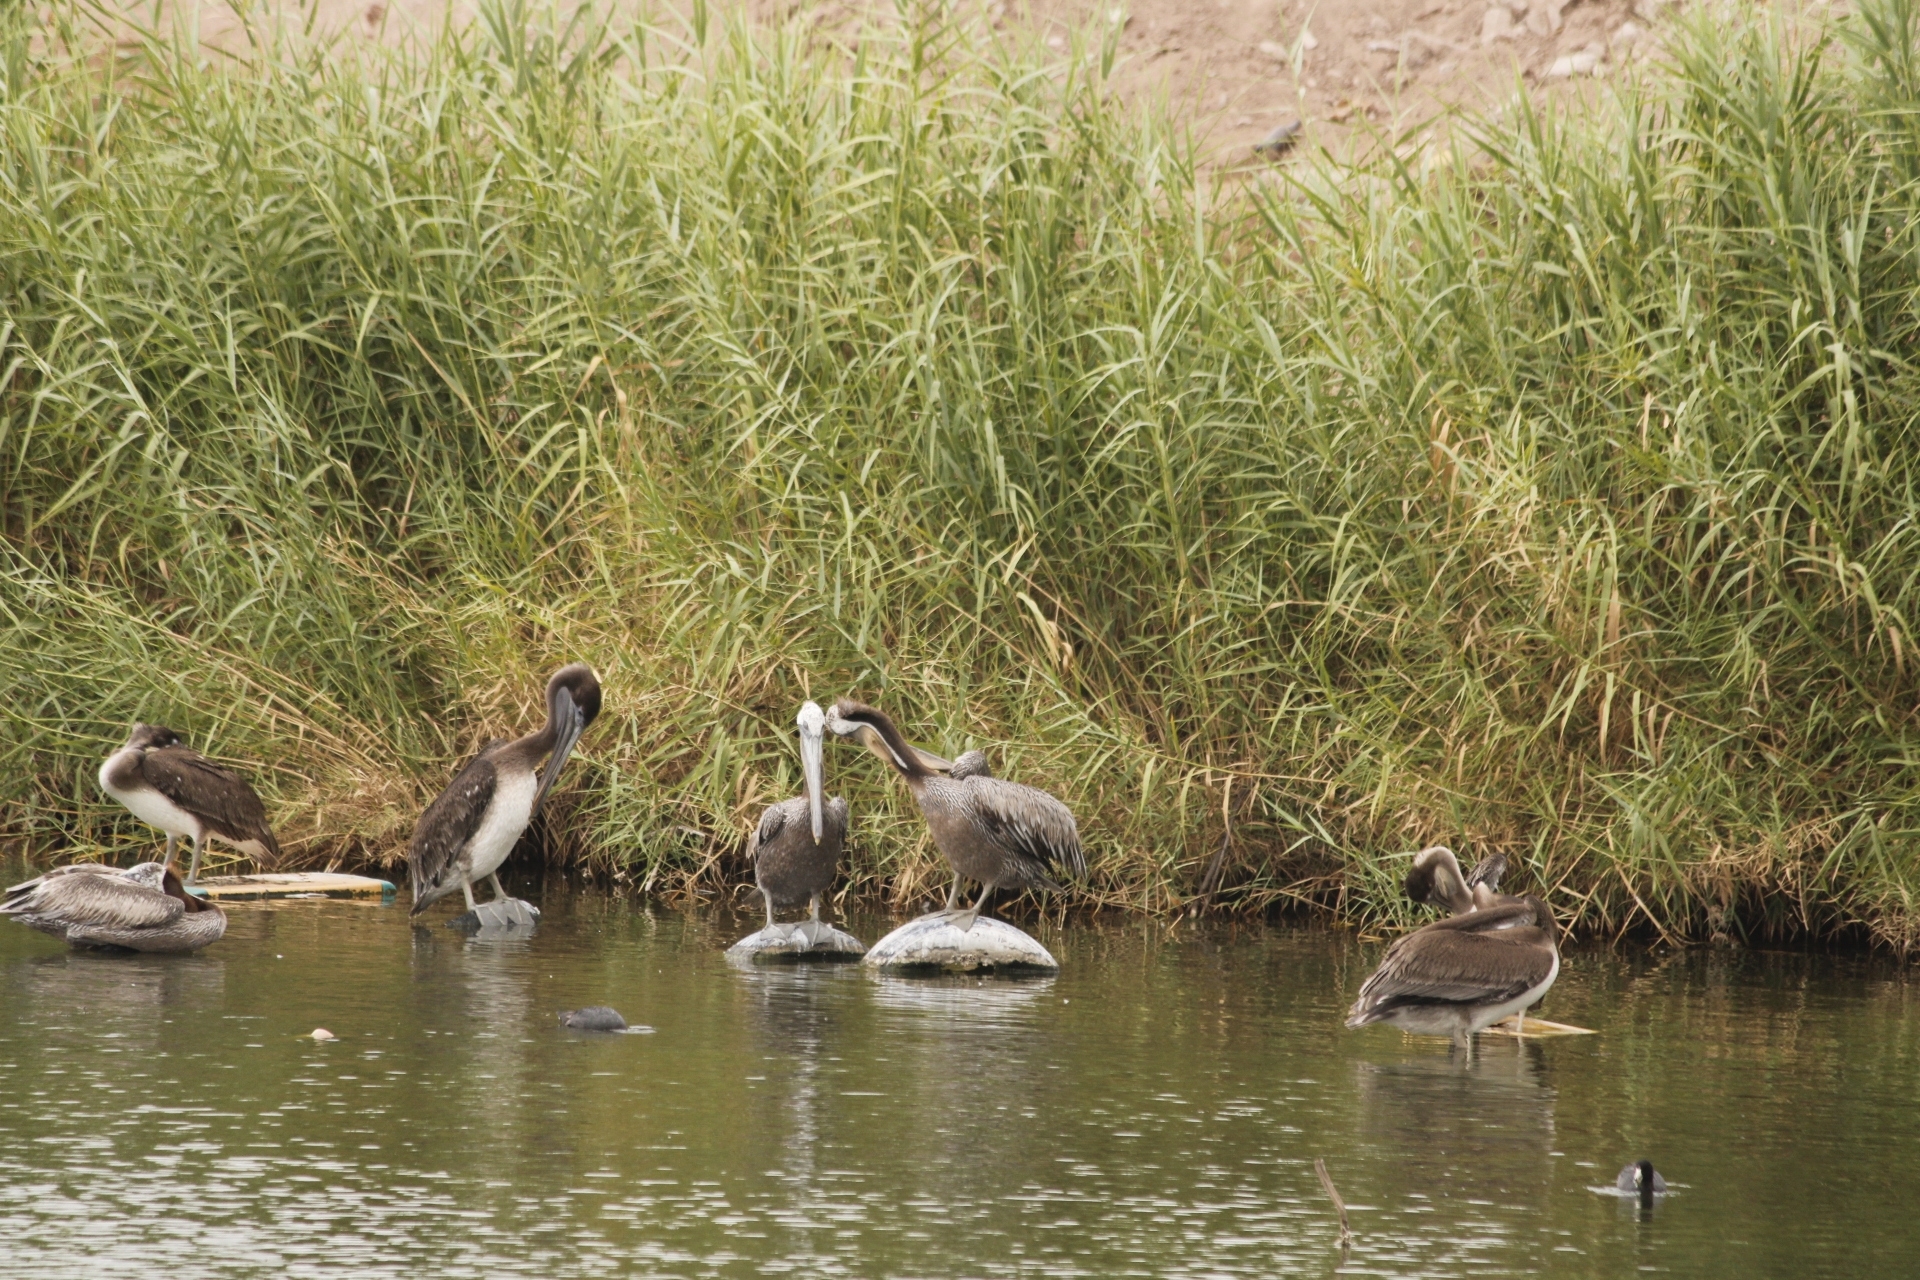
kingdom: Animalia
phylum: Chordata
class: Aves
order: Pelecaniformes
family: Pelecanidae
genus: Pelecanus
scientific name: Pelecanus occidentalis
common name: Brown pelican
